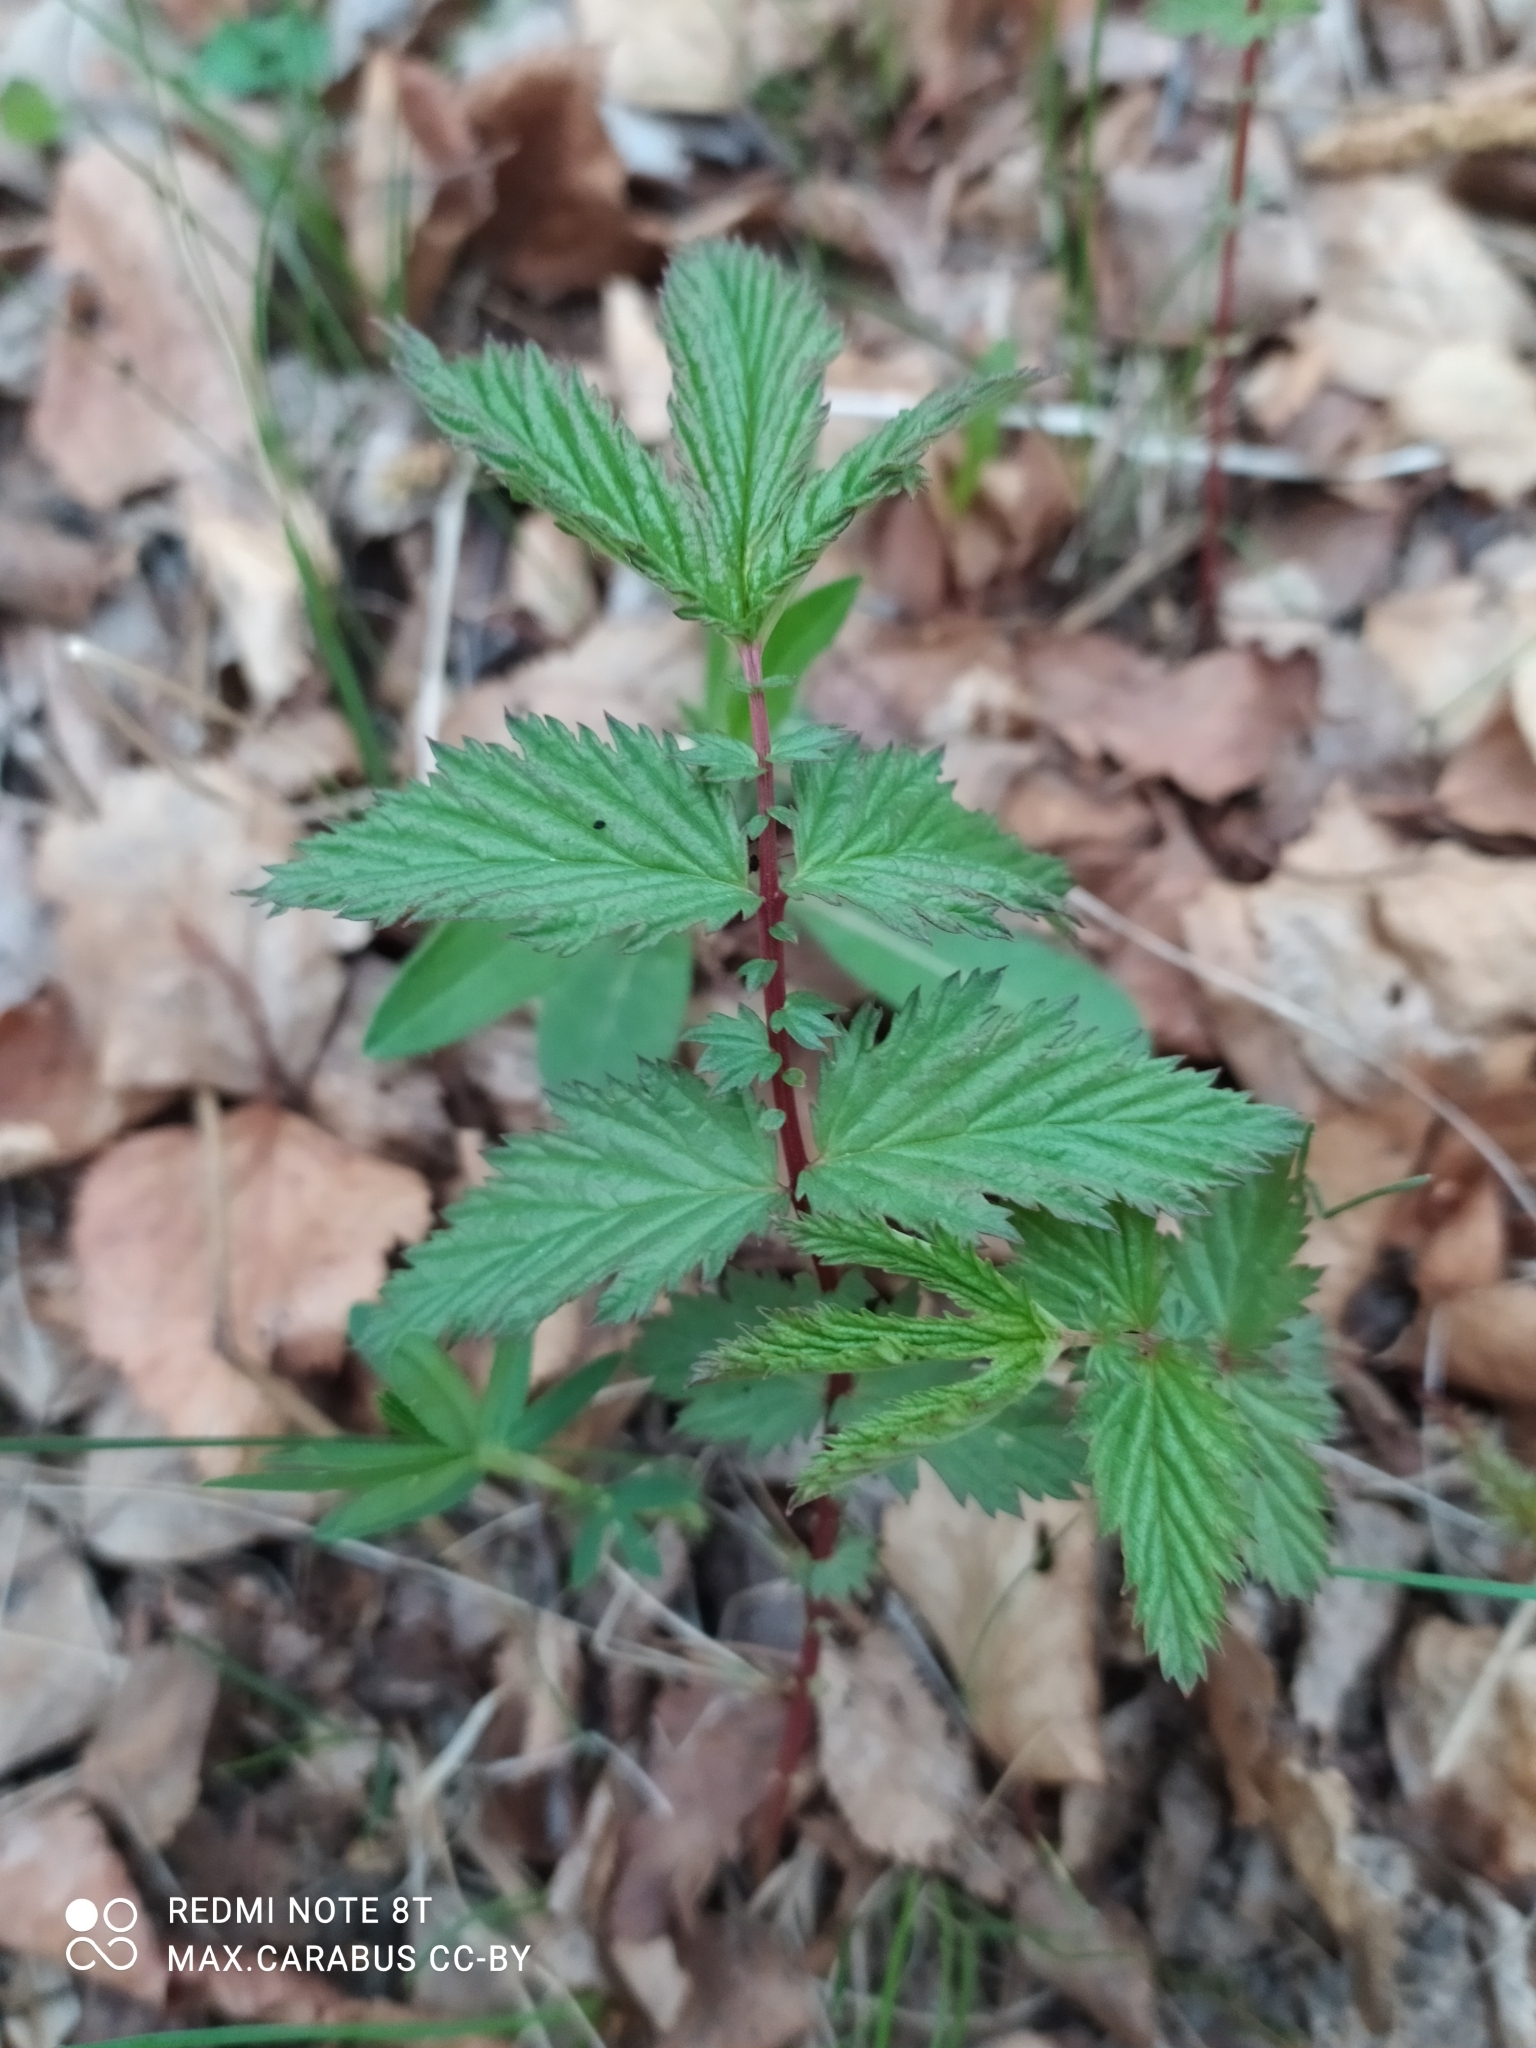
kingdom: Plantae
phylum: Tracheophyta
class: Magnoliopsida
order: Rosales
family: Rosaceae
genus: Filipendula
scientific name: Filipendula ulmaria
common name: Meadowsweet
